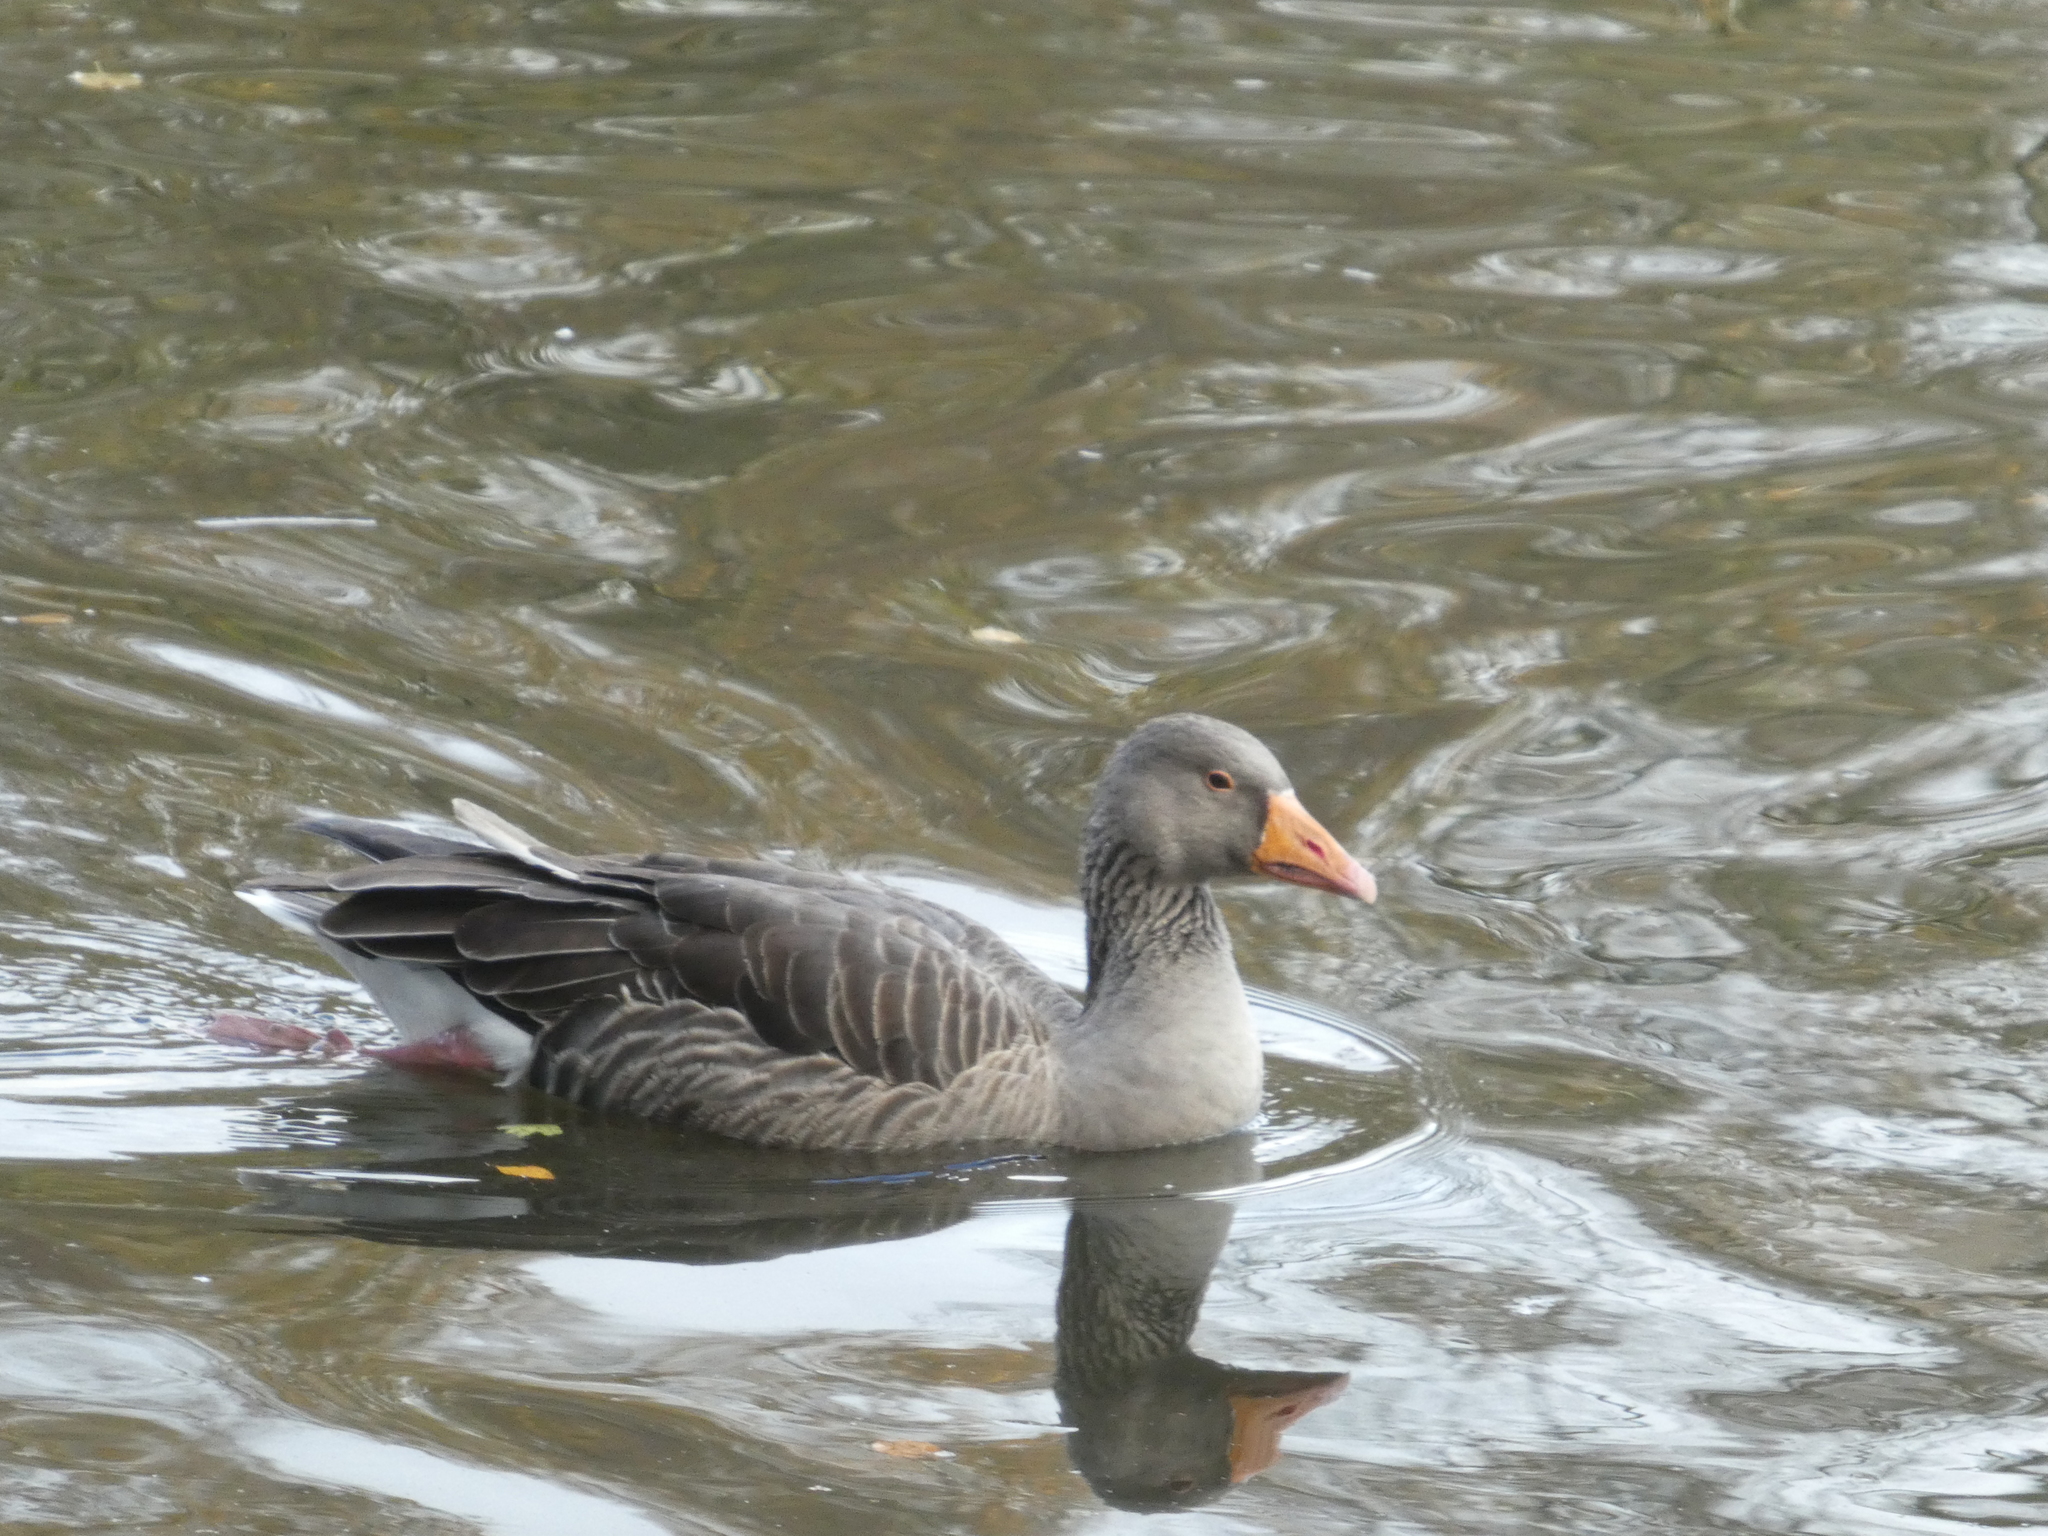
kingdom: Animalia
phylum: Chordata
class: Aves
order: Anseriformes
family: Anatidae
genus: Anser
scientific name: Anser anser
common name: Greylag goose
